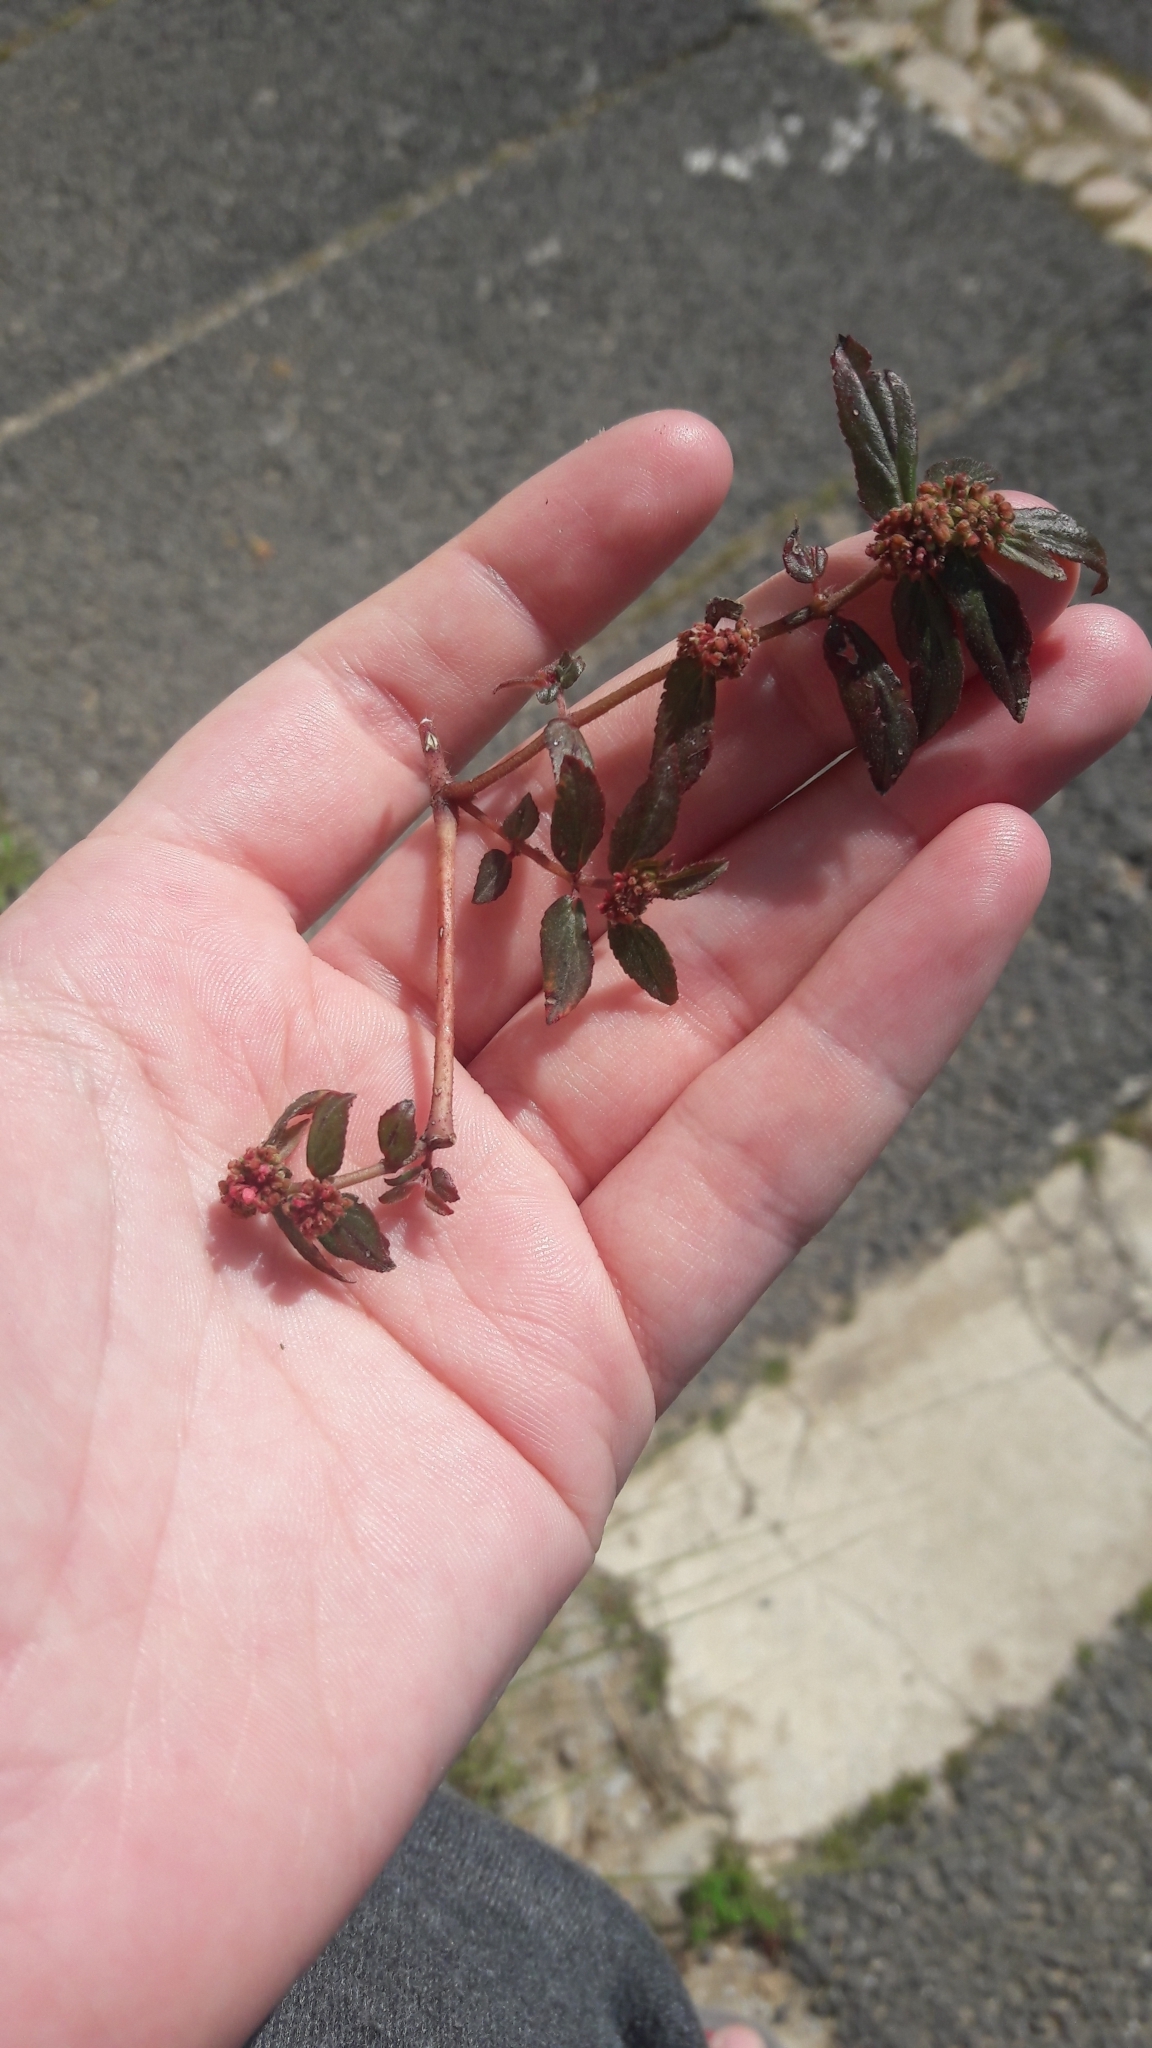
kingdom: Plantae
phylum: Tracheophyta
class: Magnoliopsida
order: Malpighiales
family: Euphorbiaceae
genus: Euphorbia
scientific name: Euphorbia hirta
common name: Pillpod sandmat
